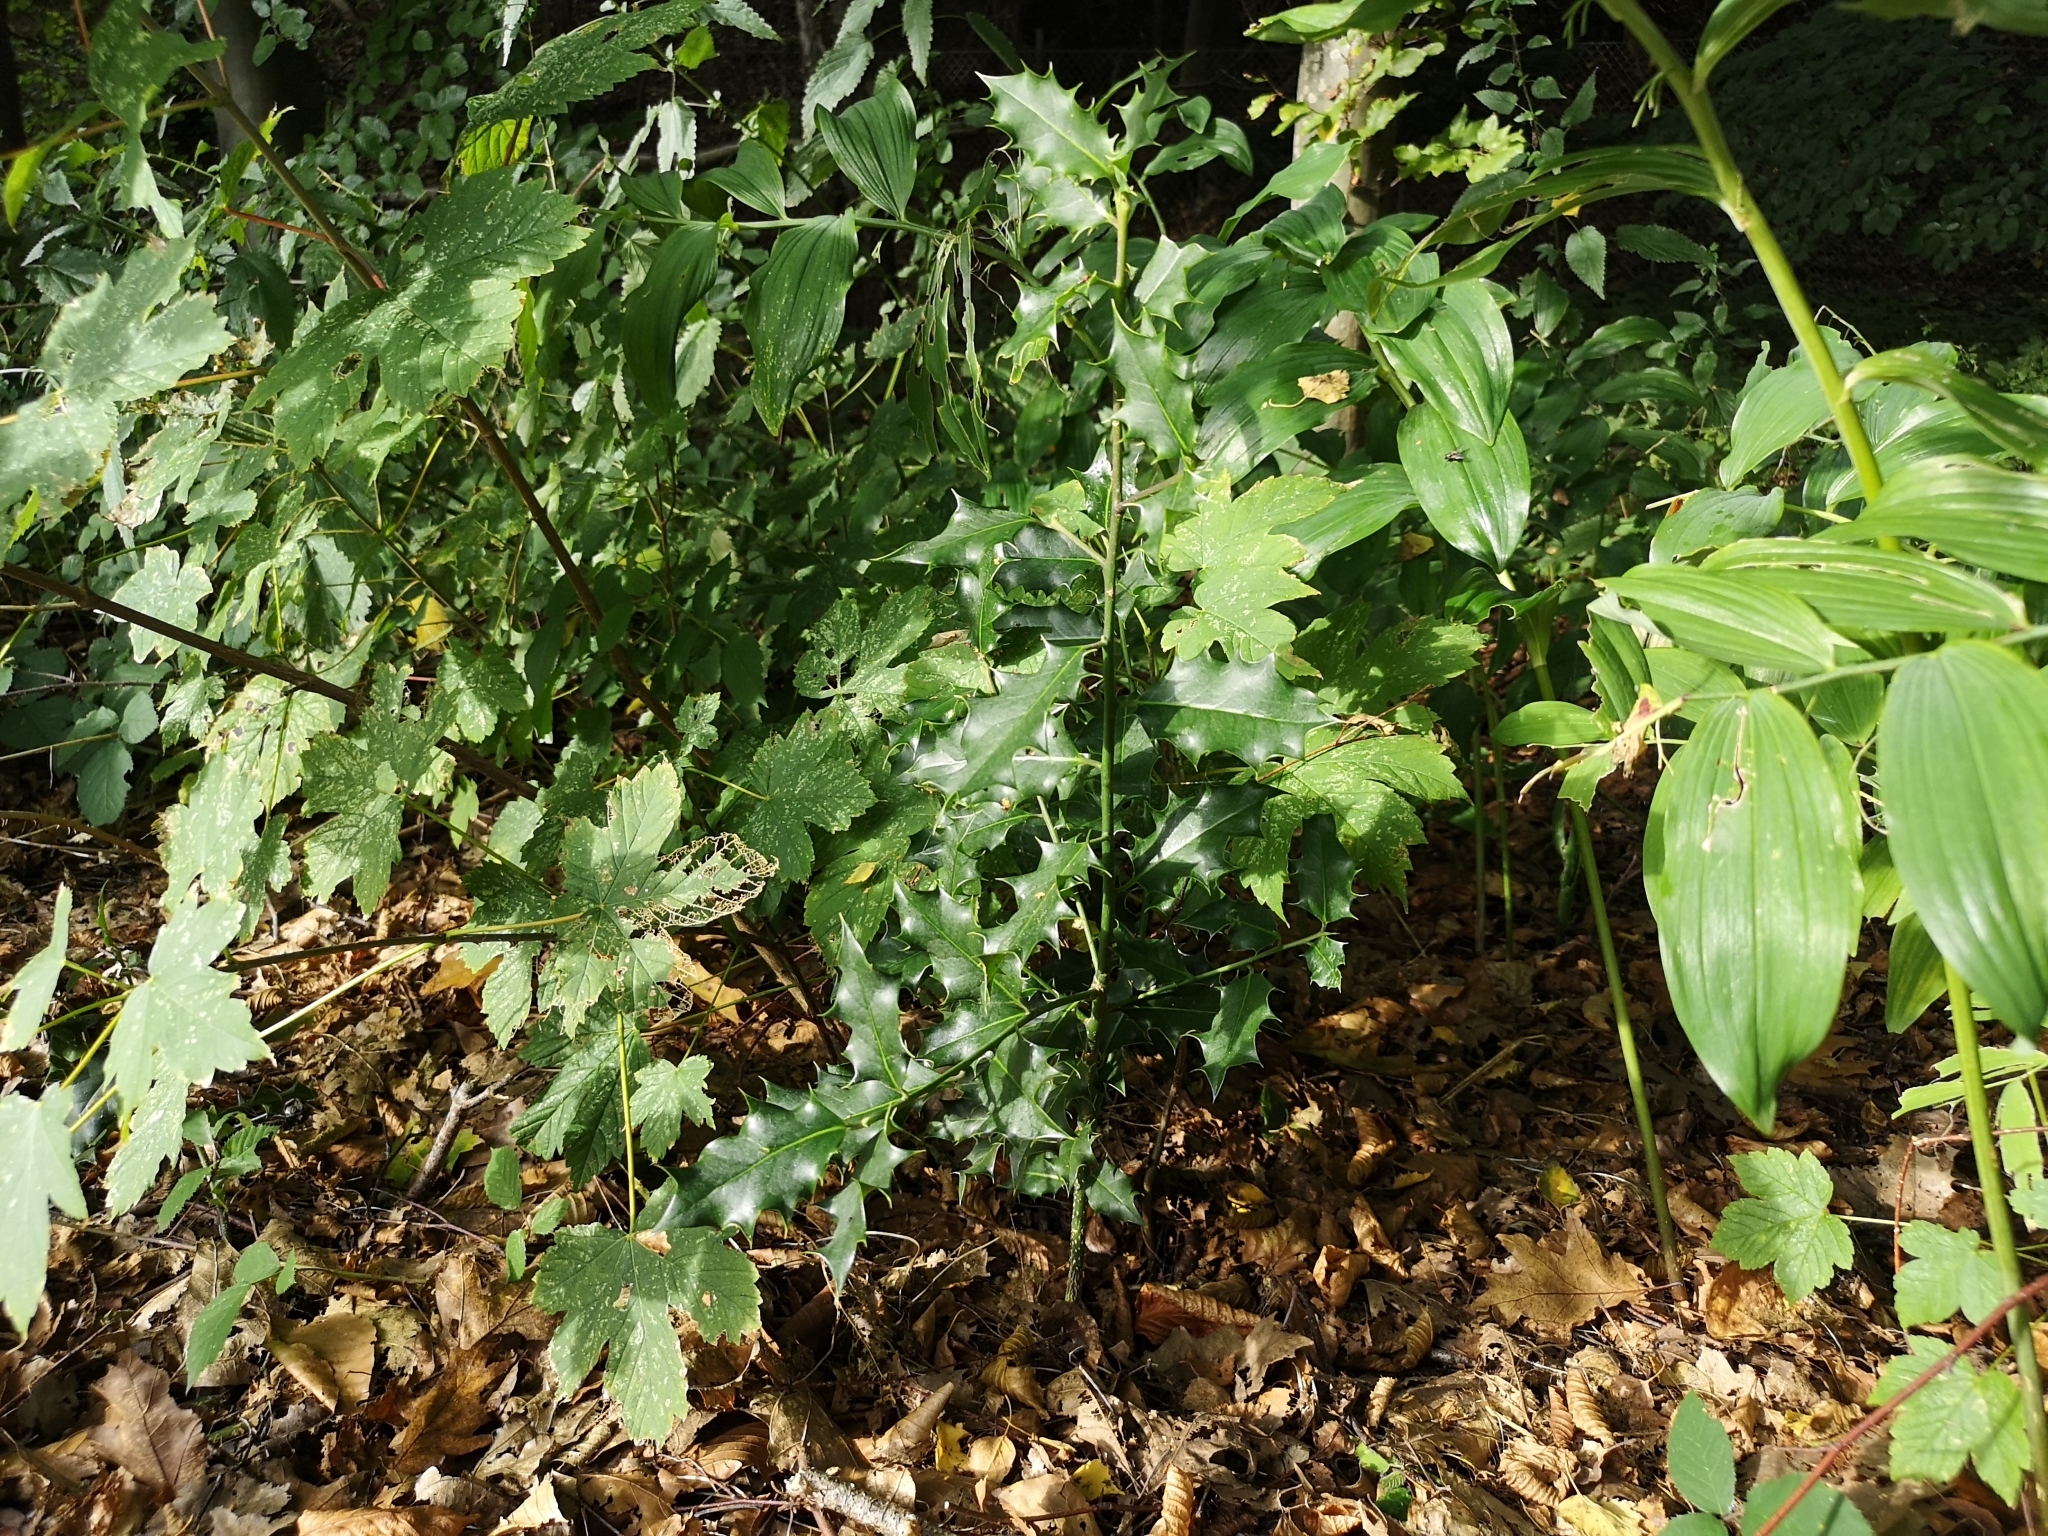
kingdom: Plantae
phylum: Tracheophyta
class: Magnoliopsida
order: Aquifoliales
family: Aquifoliaceae
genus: Ilex
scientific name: Ilex aquifolium
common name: English holly
